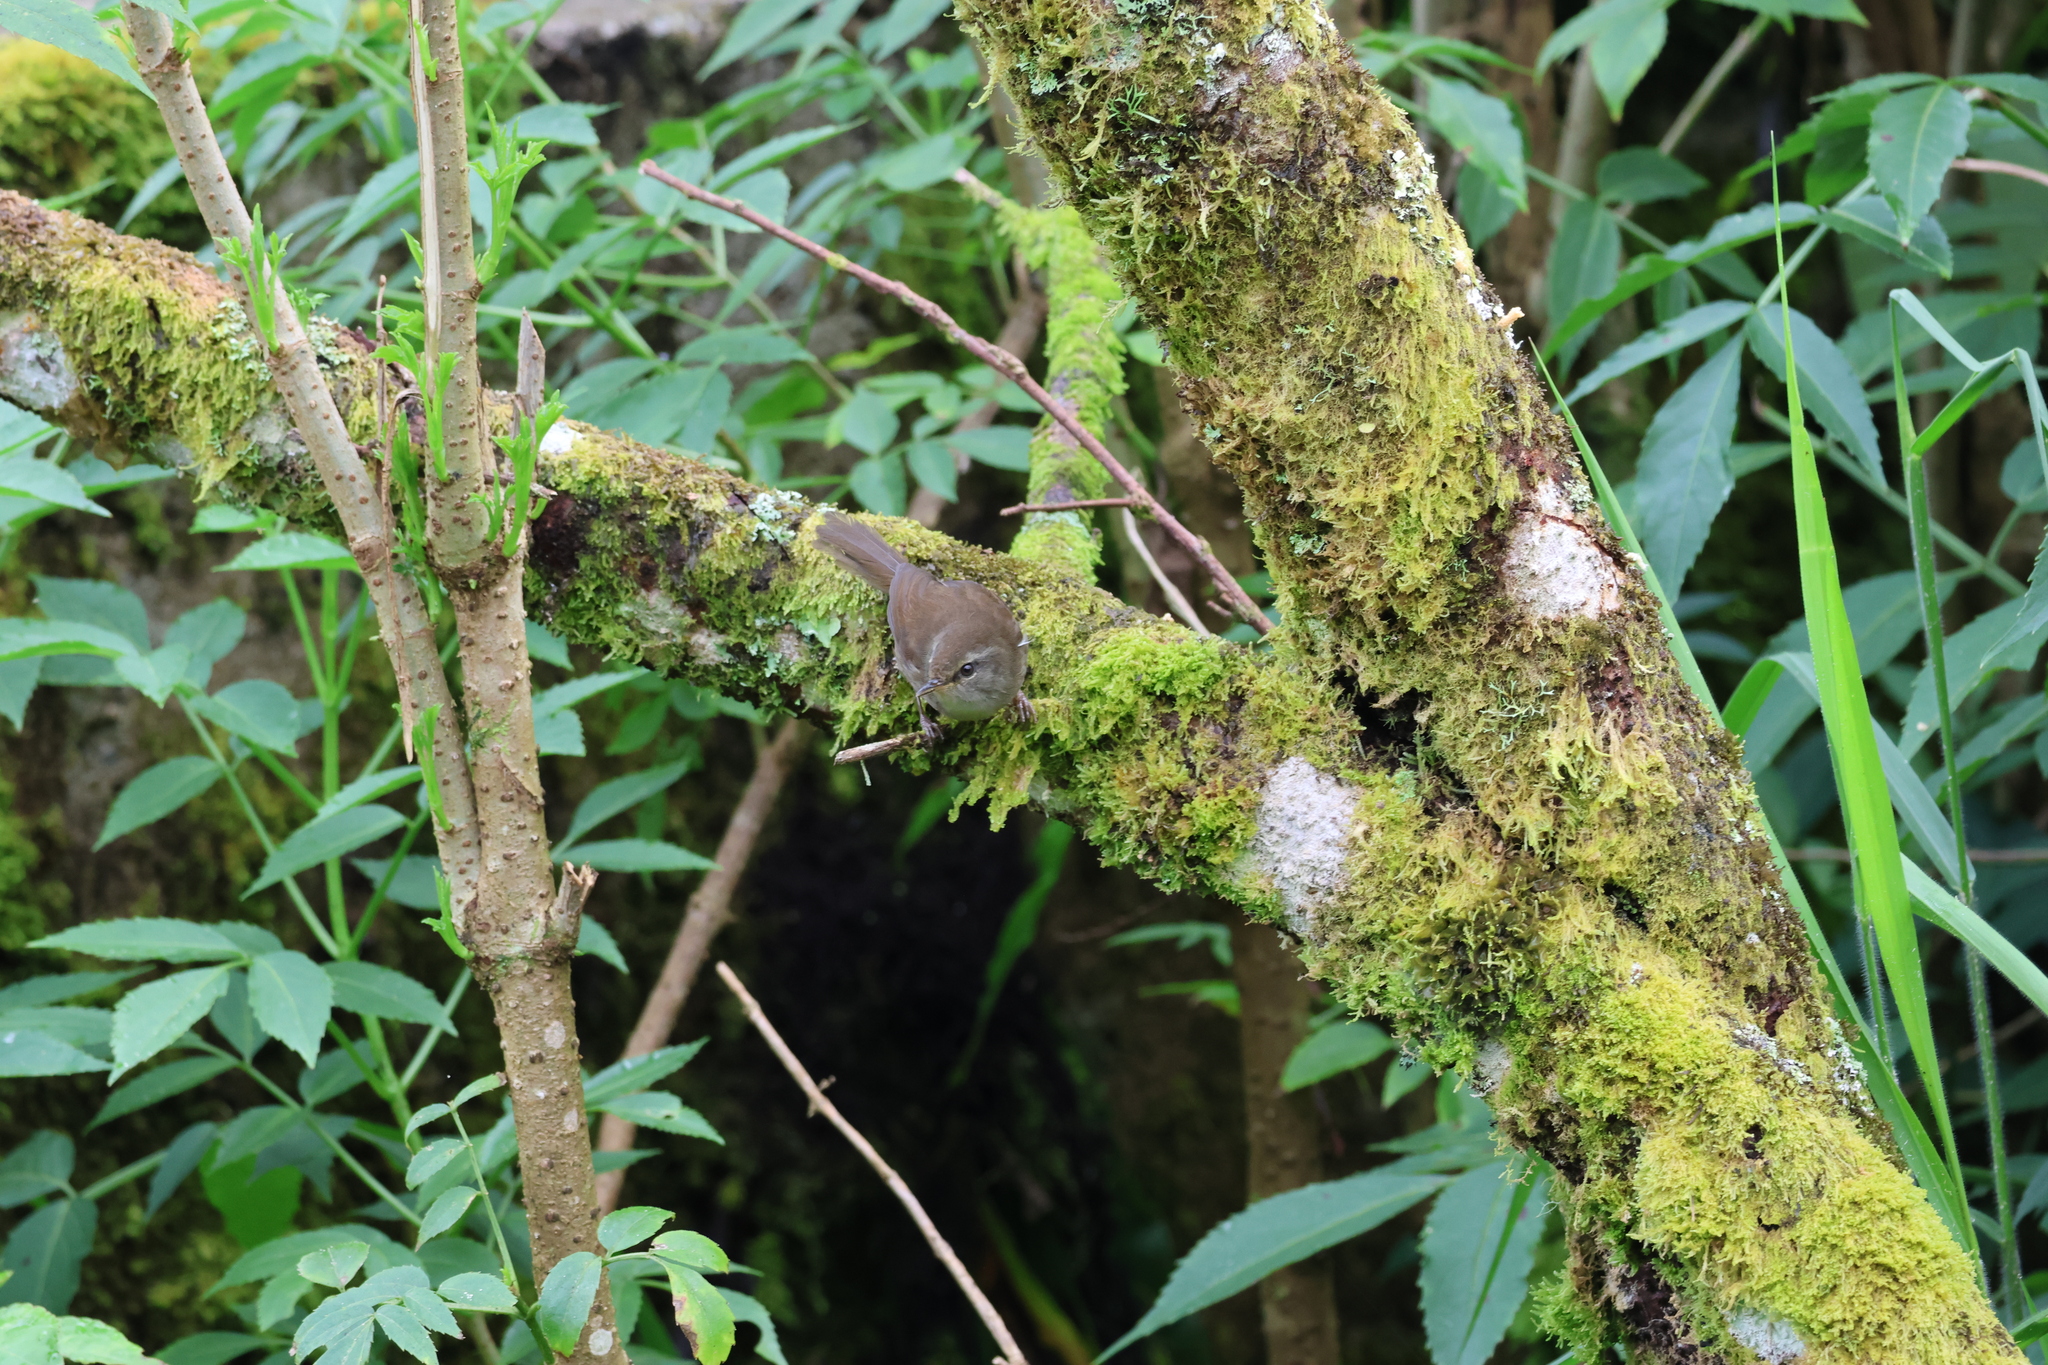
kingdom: Animalia
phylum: Chordata
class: Aves
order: Passeriformes
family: Cettiidae
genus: Horornis
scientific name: Horornis flavolivaceus
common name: Aberrant bush warbler
